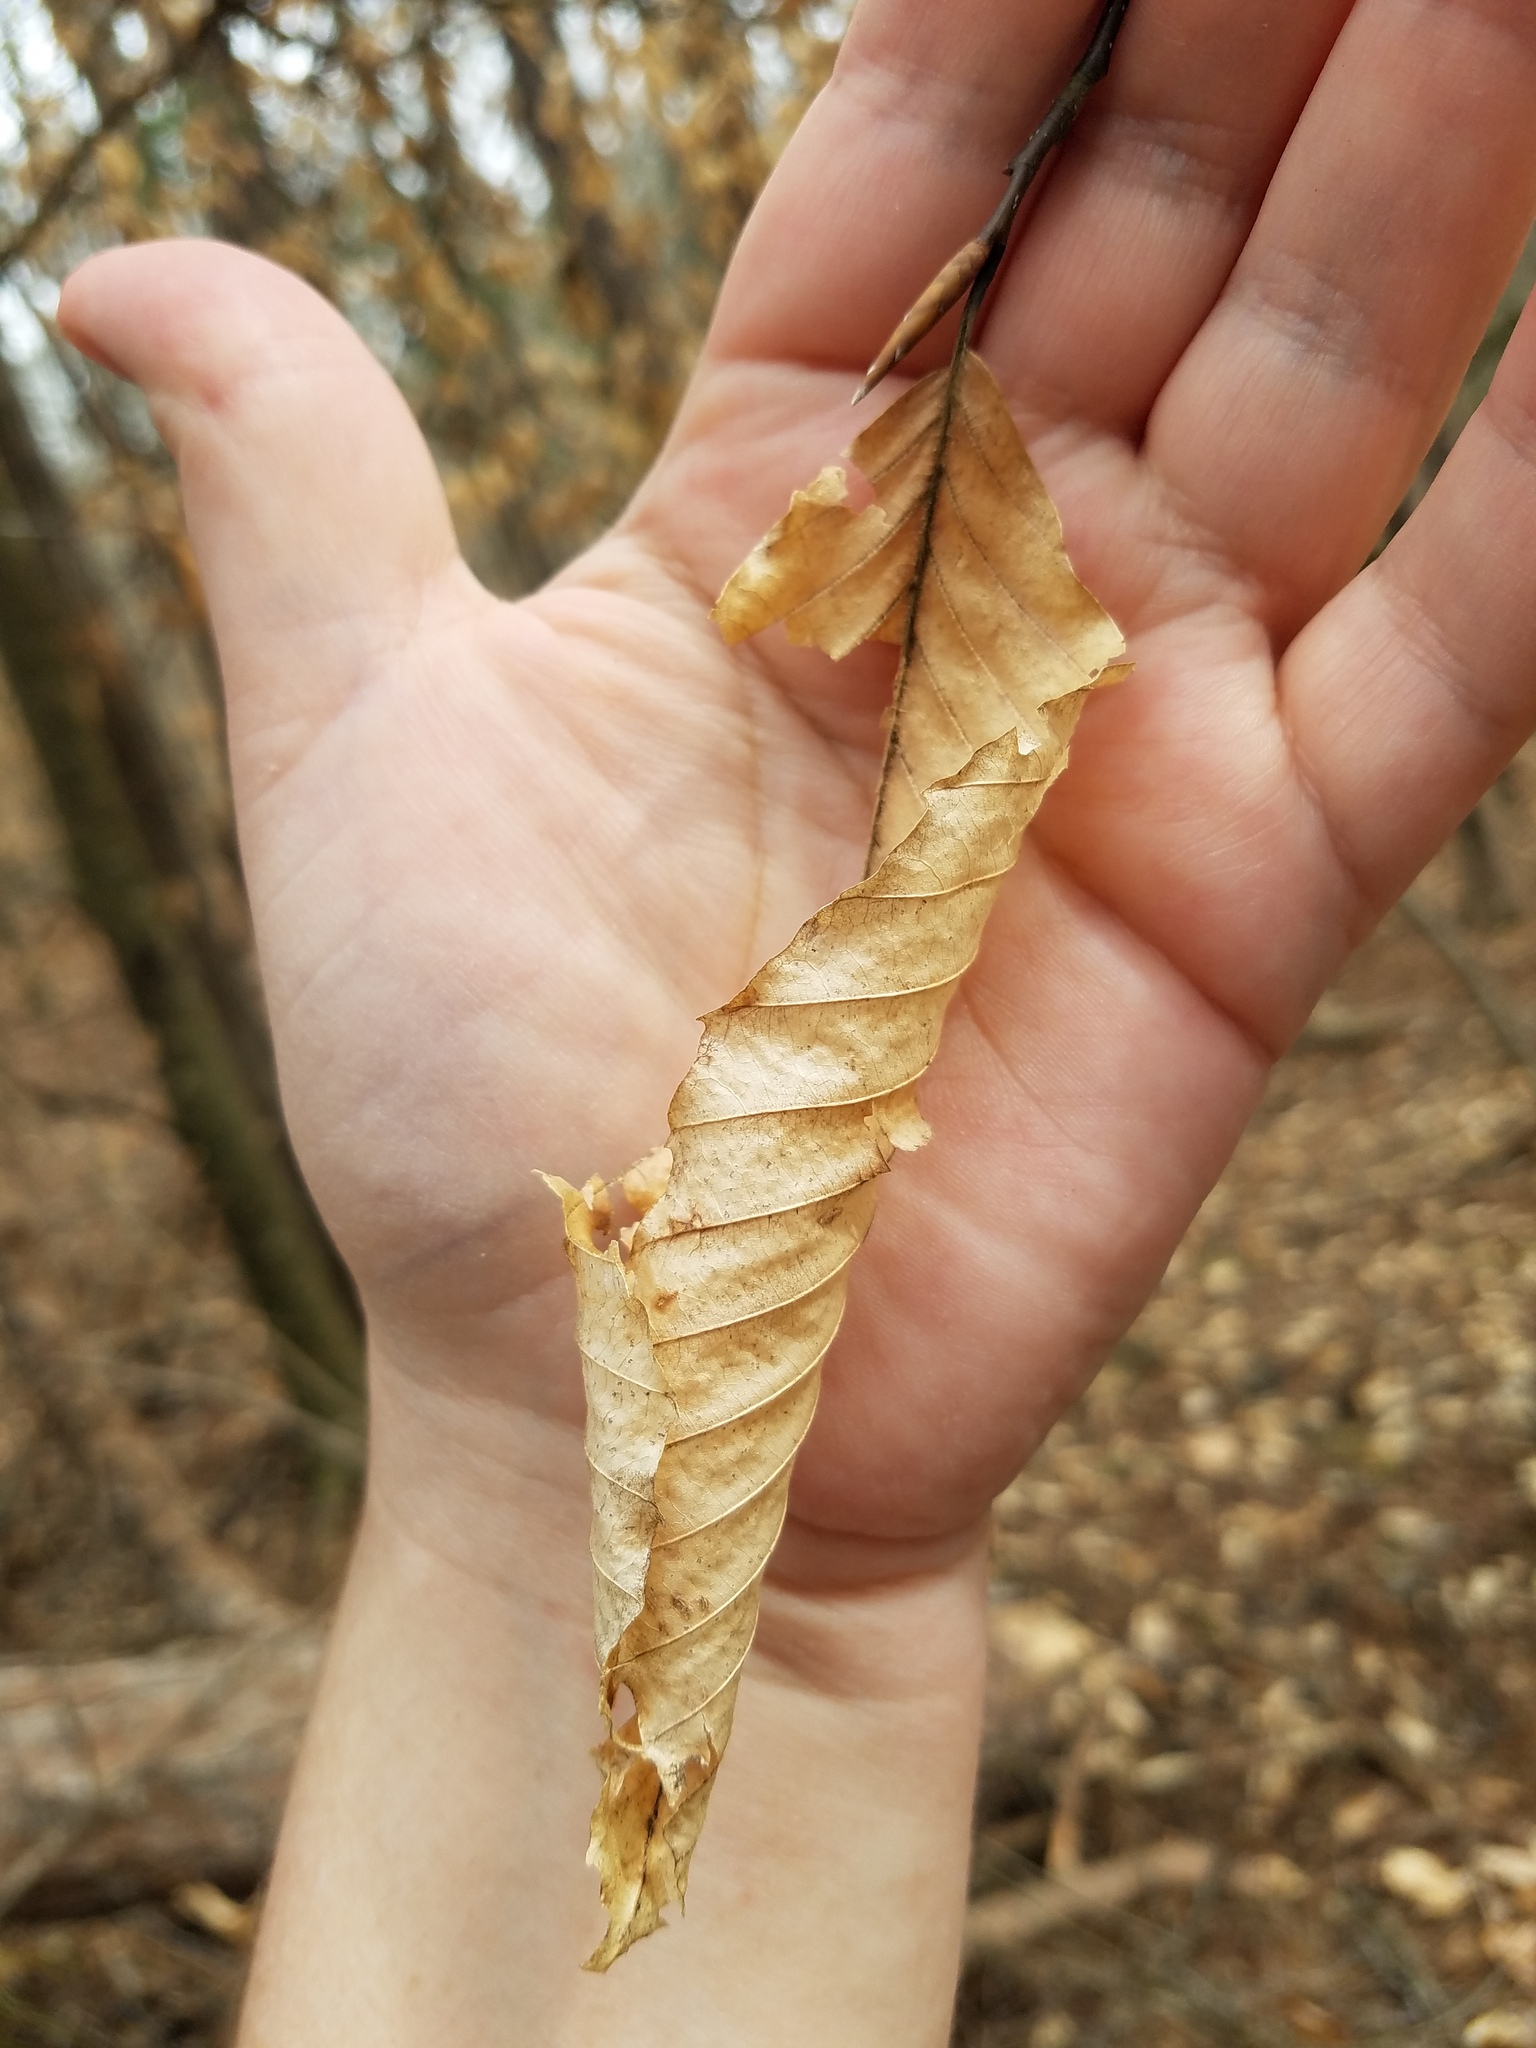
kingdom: Plantae
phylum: Tracheophyta
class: Magnoliopsida
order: Fagales
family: Fagaceae
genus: Fagus
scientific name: Fagus grandifolia
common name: American beech
